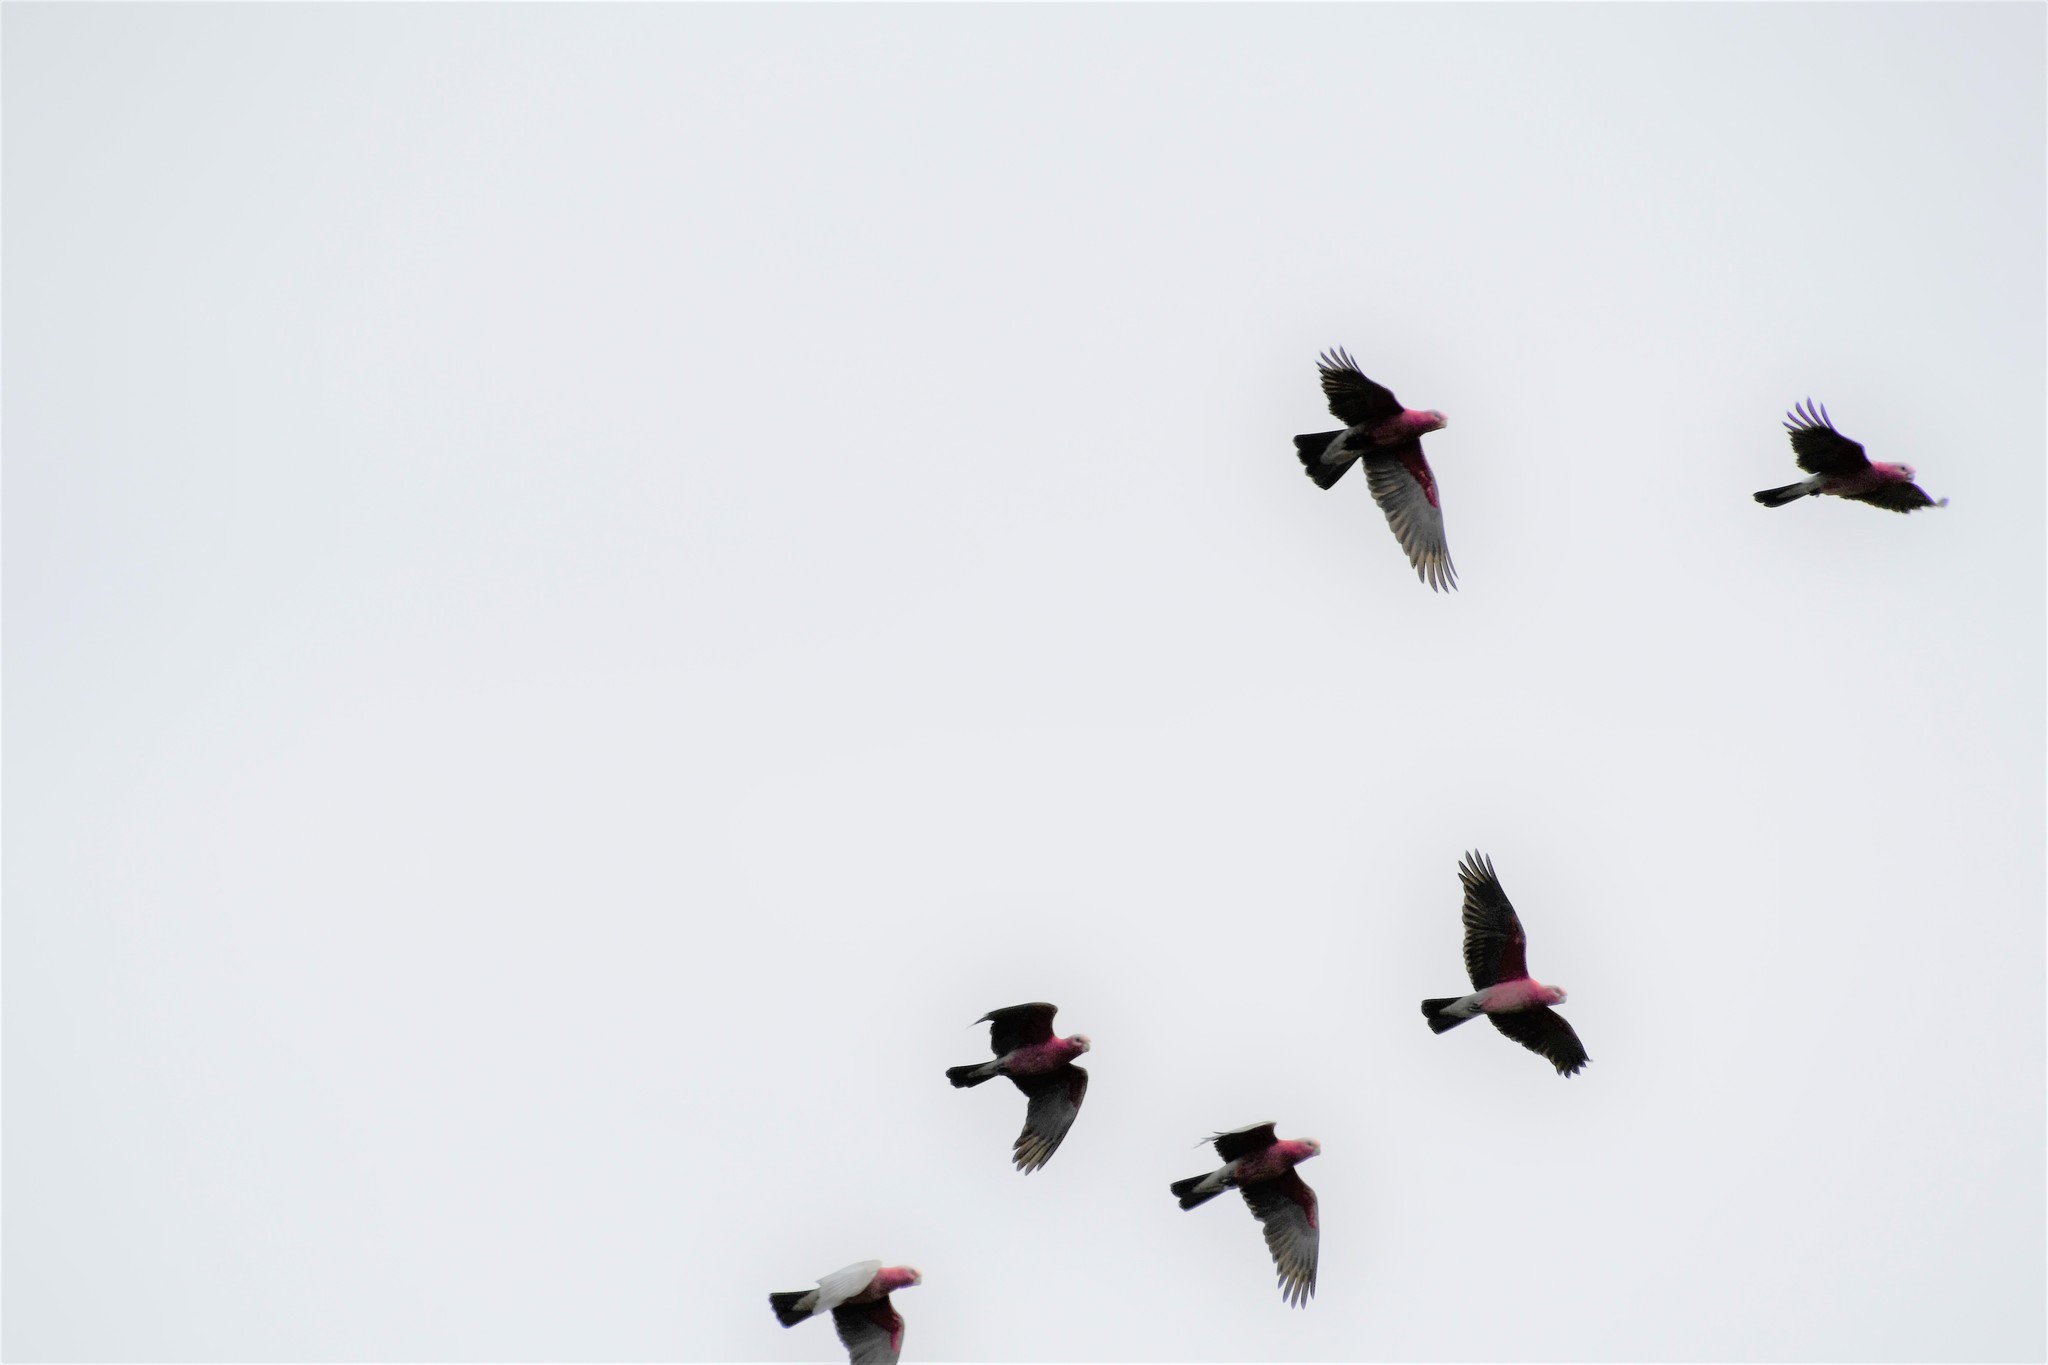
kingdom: Animalia
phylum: Chordata
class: Aves
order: Psittaciformes
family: Psittacidae
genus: Eolophus
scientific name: Eolophus roseicapilla
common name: Galah
